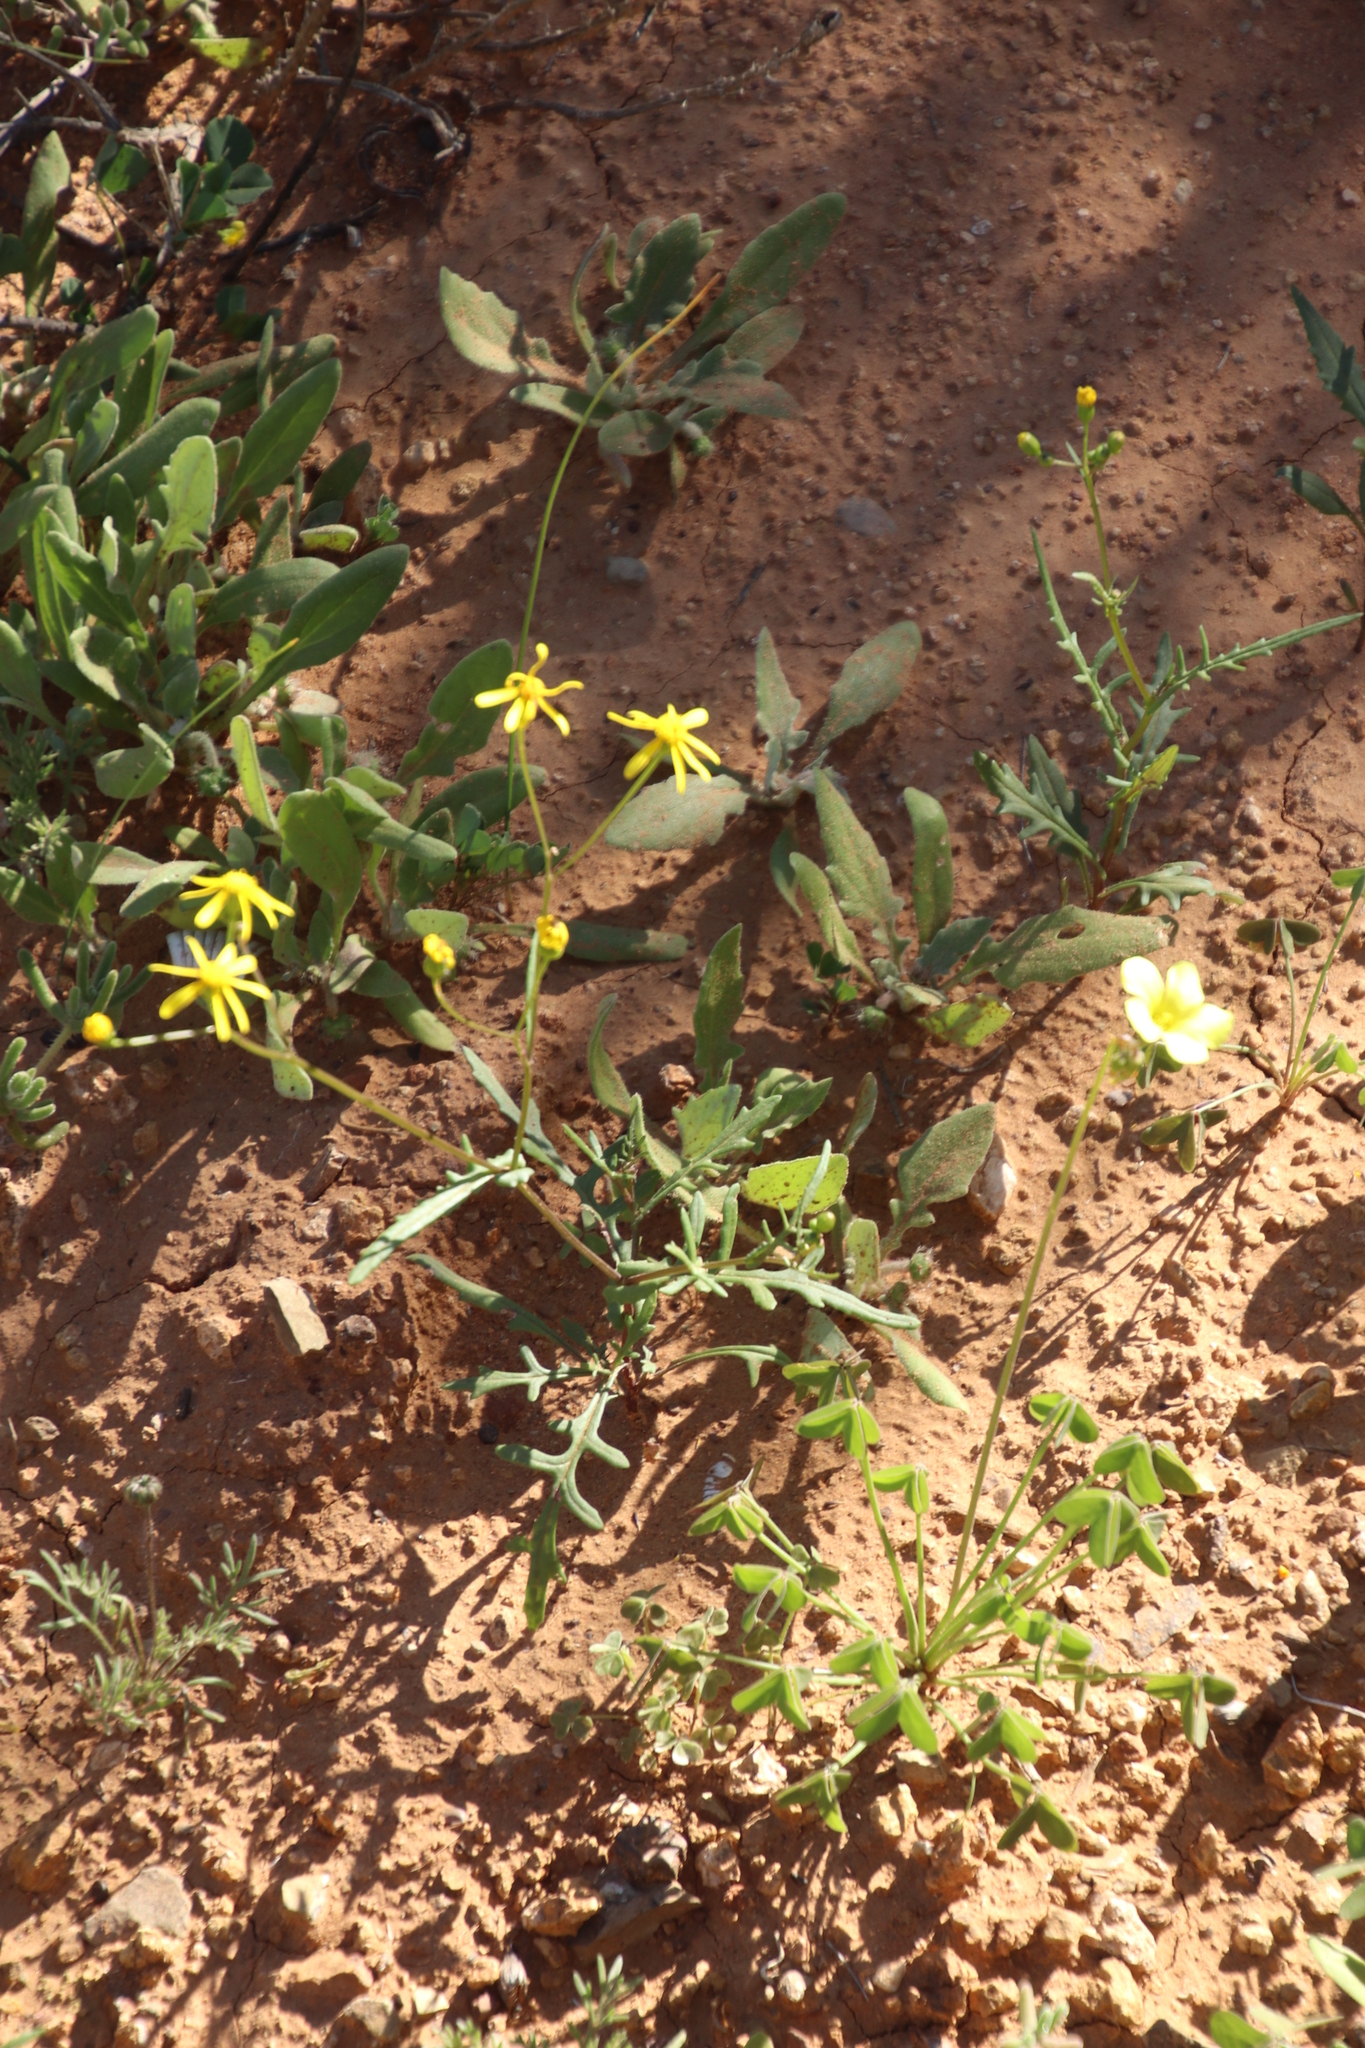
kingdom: Plantae
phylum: Tracheophyta
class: Magnoliopsida
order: Oxalidales
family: Oxalidaceae
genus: Oxalis
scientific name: Oxalis pes-caprae
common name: Bermuda-buttercup
